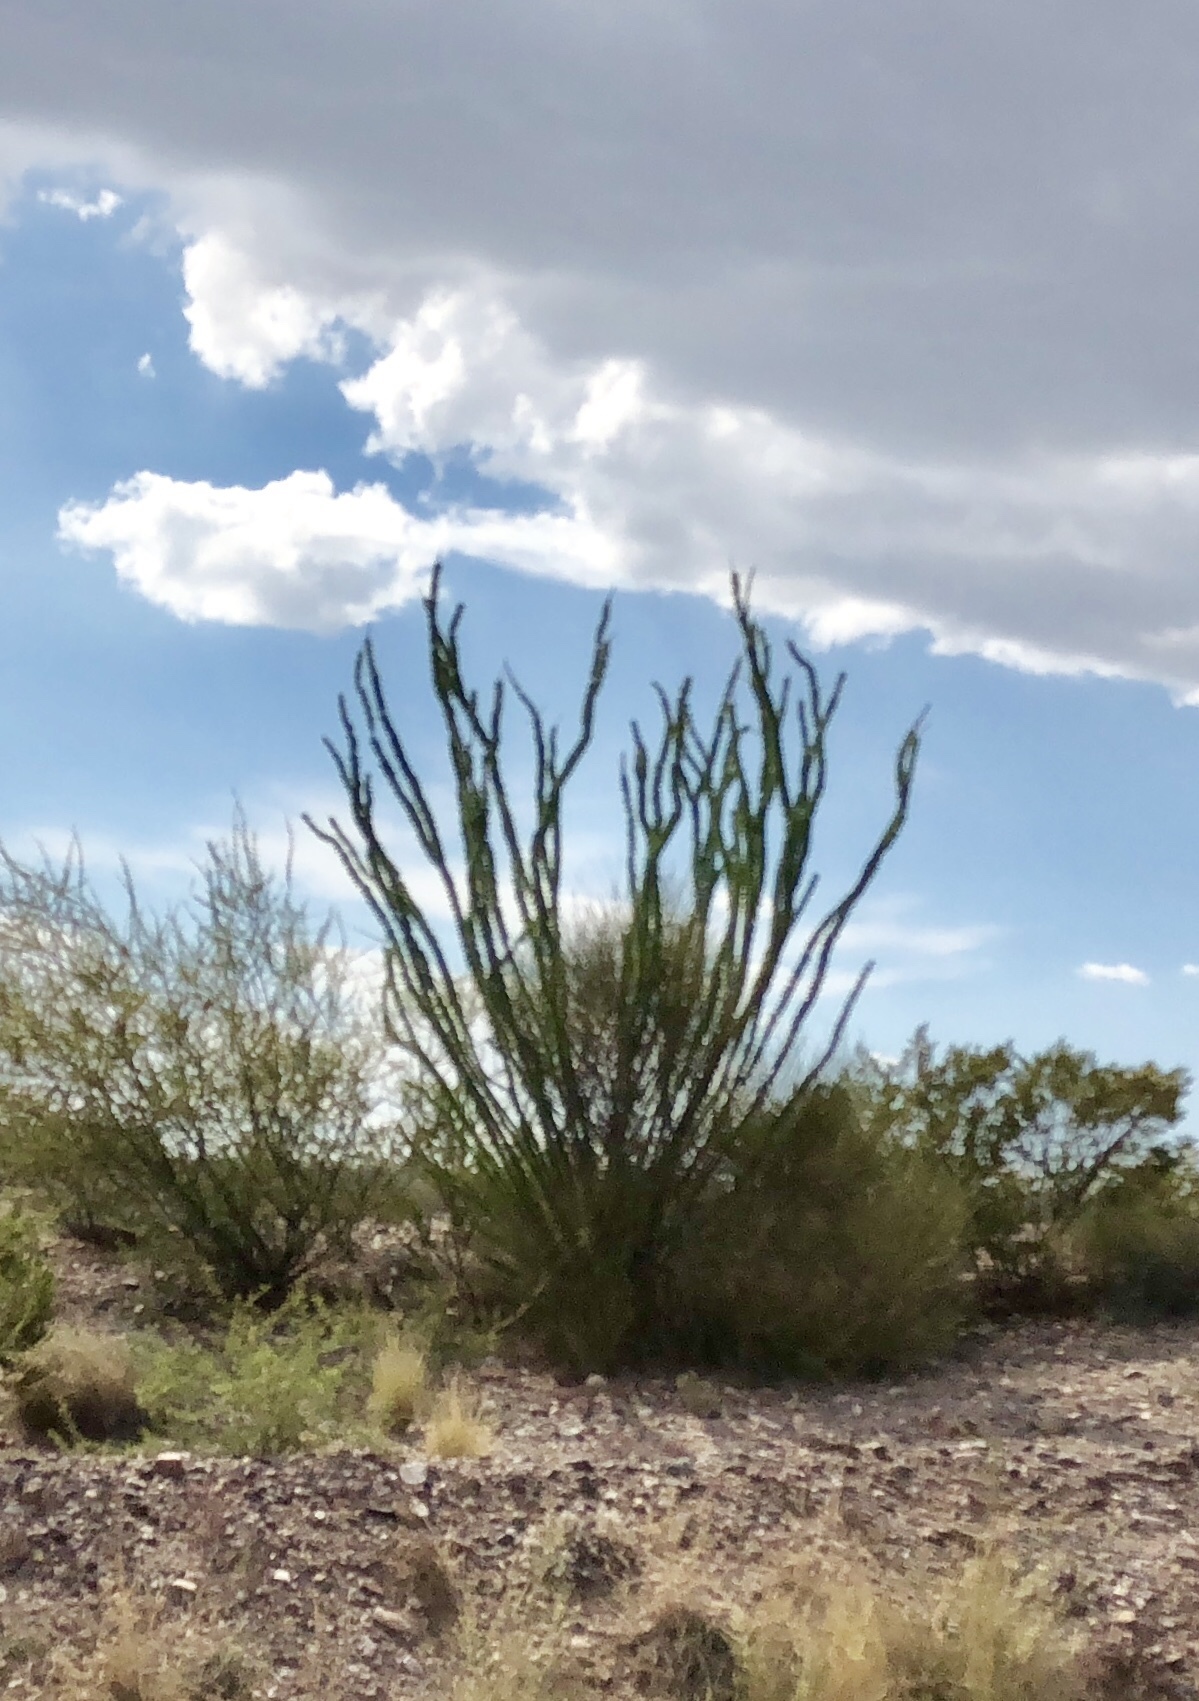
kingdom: Plantae
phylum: Tracheophyta
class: Magnoliopsida
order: Ericales
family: Fouquieriaceae
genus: Fouquieria
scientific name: Fouquieria splendens
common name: Vine-cactus
